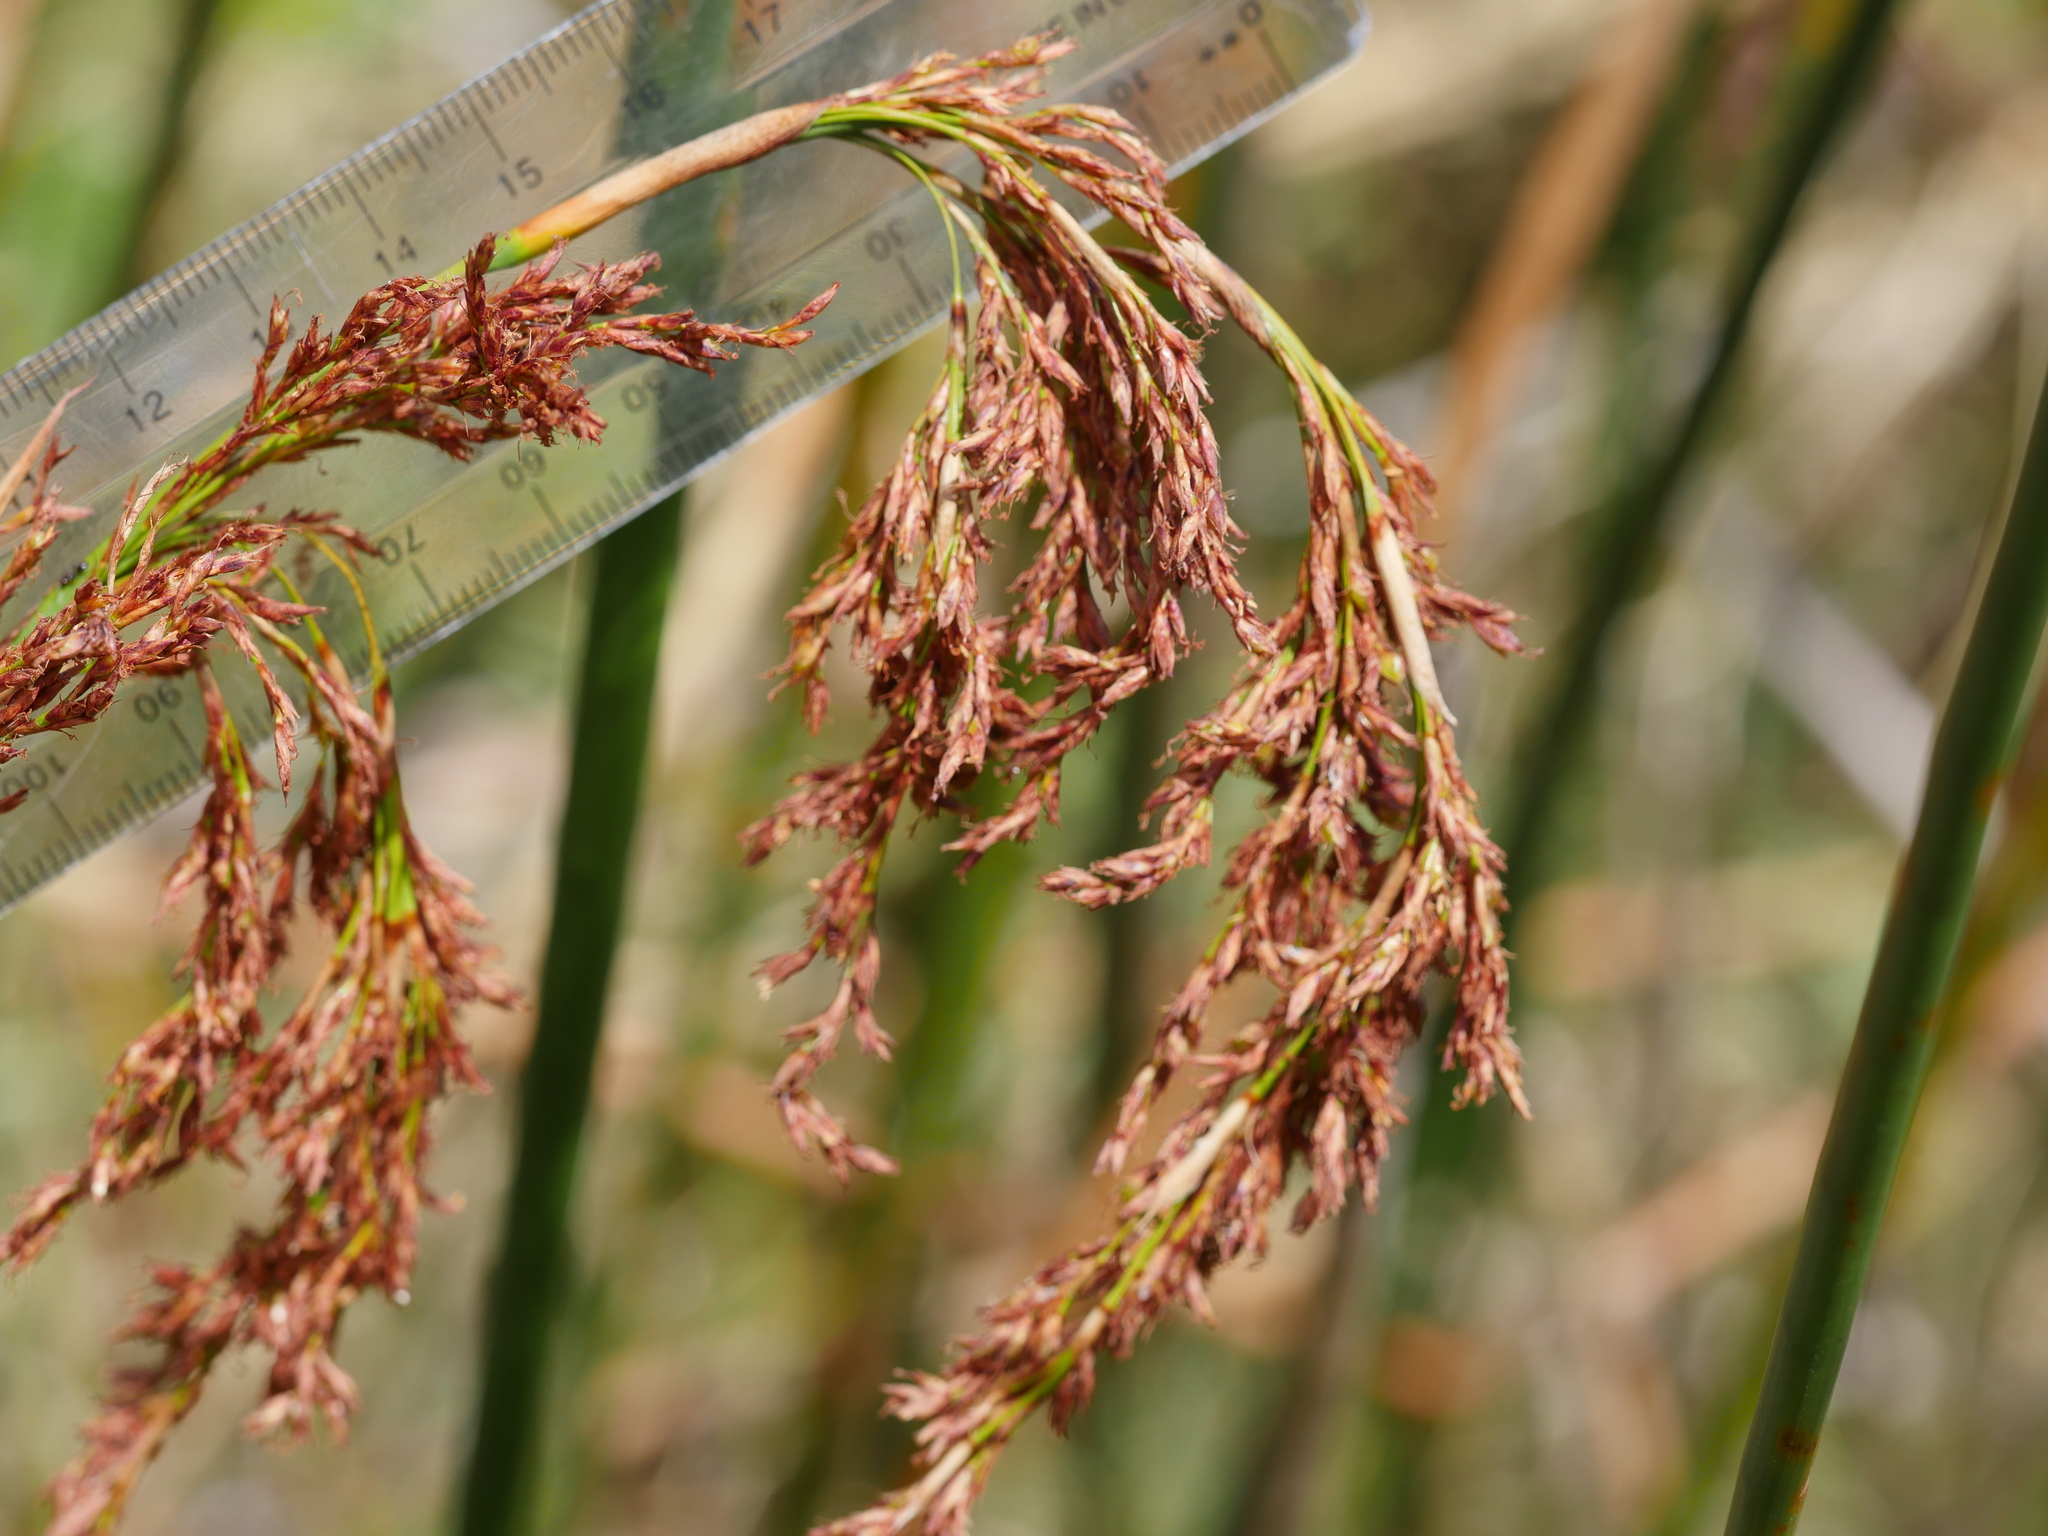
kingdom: Plantae
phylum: Tracheophyta
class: Liliopsida
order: Poales
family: Cyperaceae
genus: Machaerina
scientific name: Machaerina articulata
